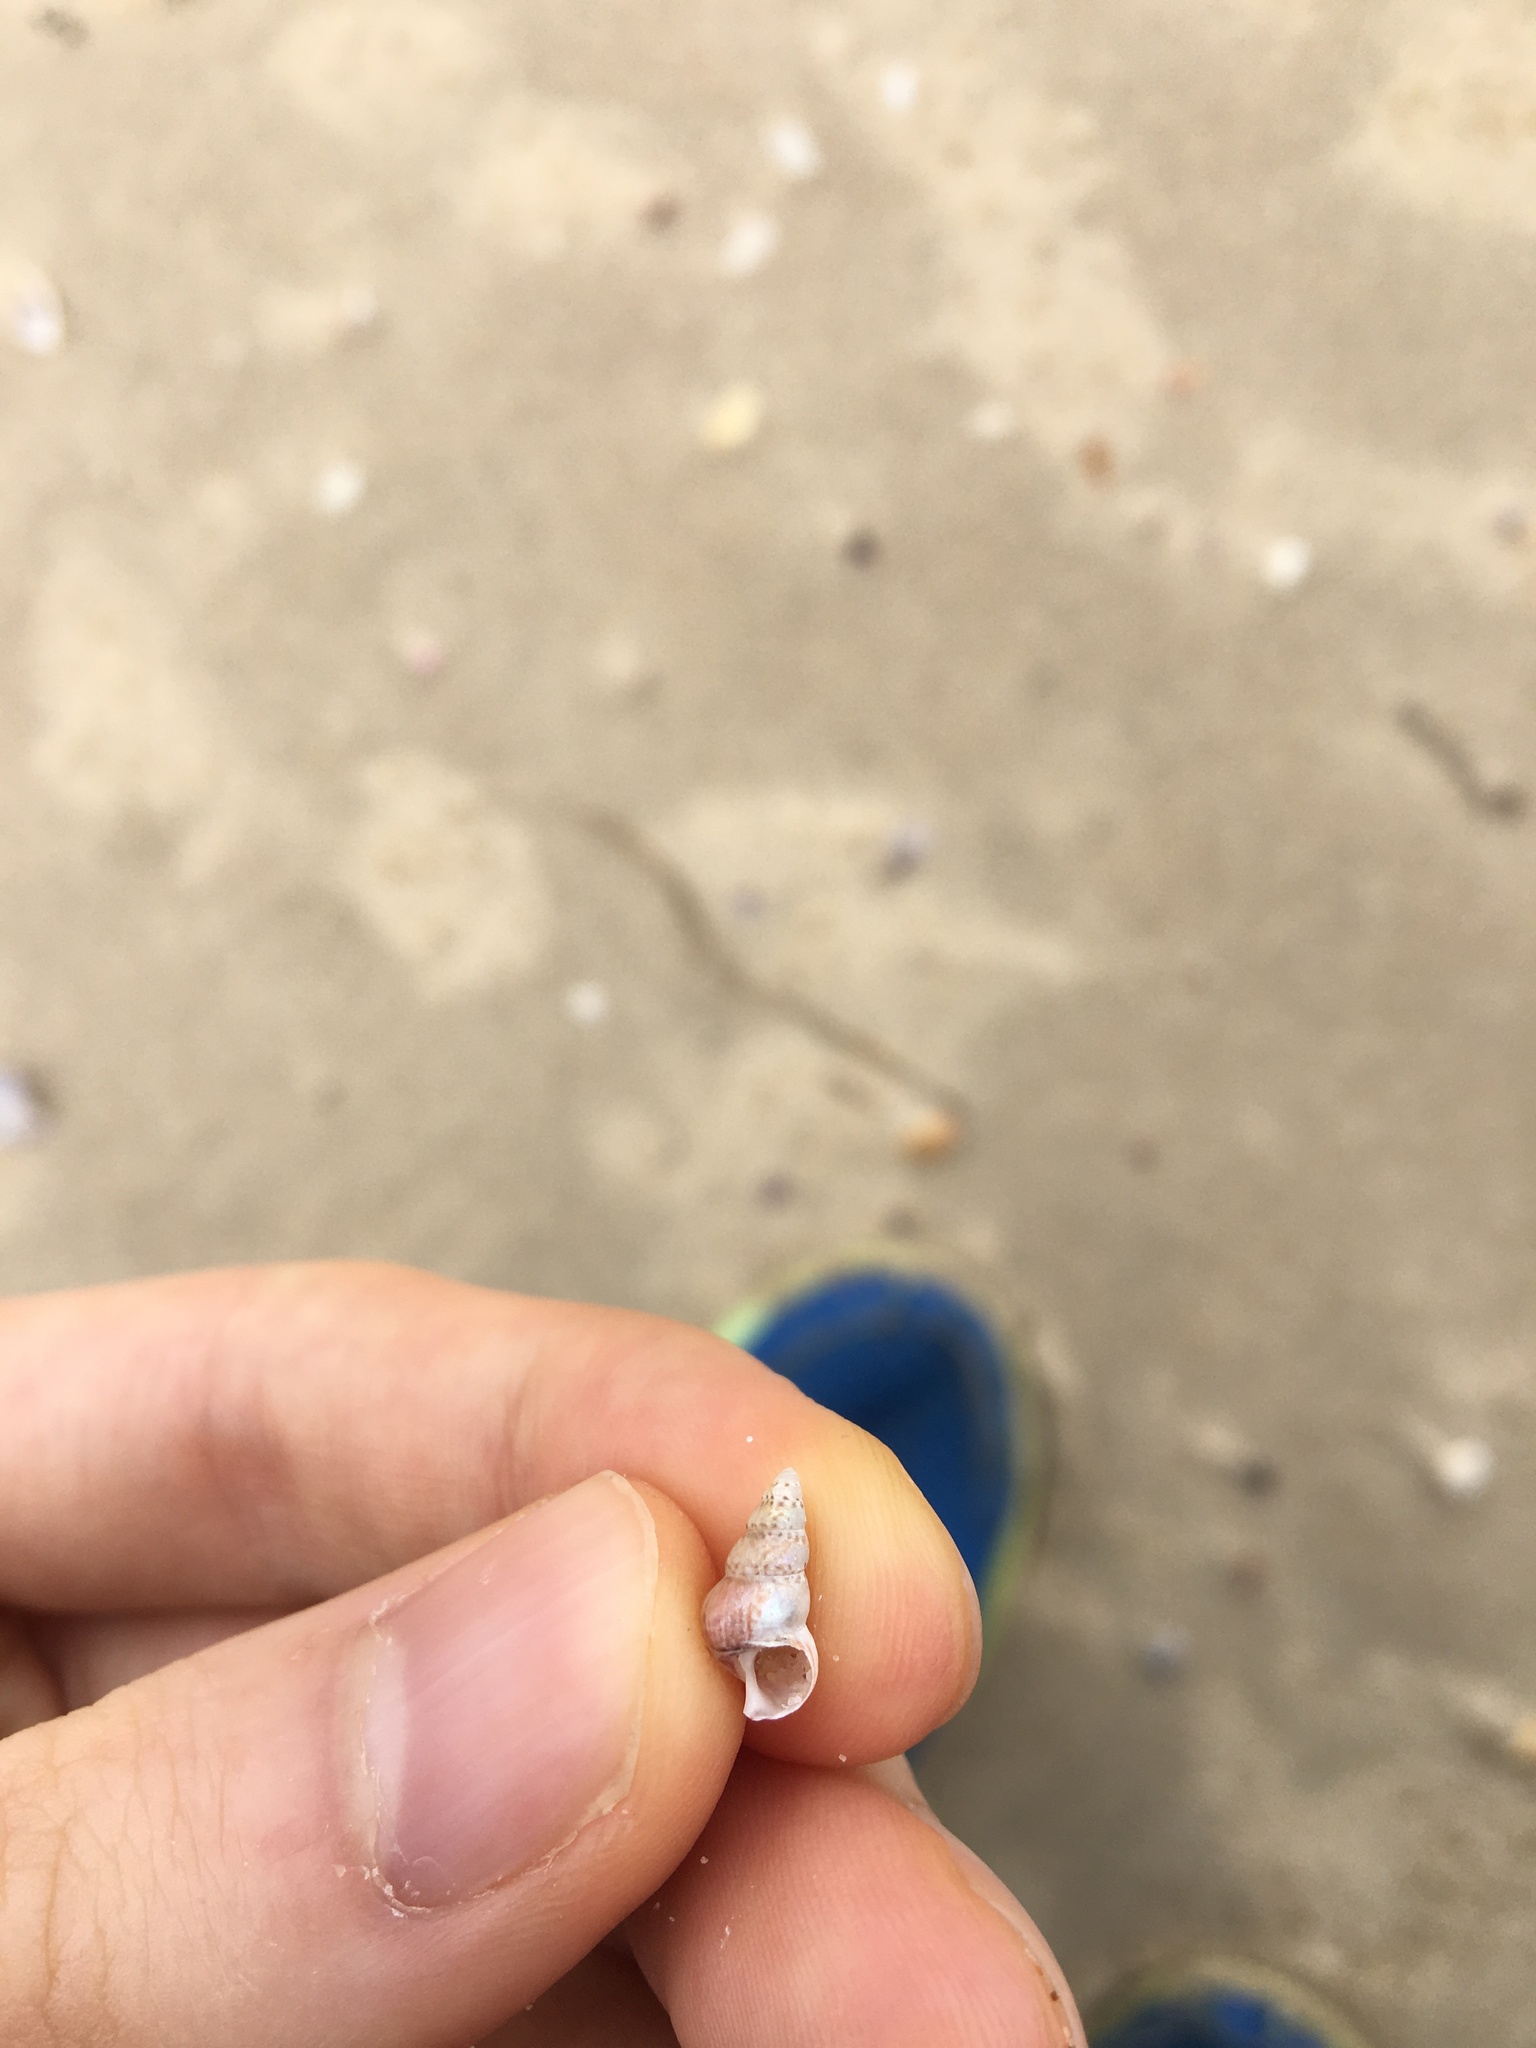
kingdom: Animalia
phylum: Mollusca
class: Gastropoda
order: Trochida
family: Trochidae
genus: Leiopyrga
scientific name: Leiopyrga lineolaris
